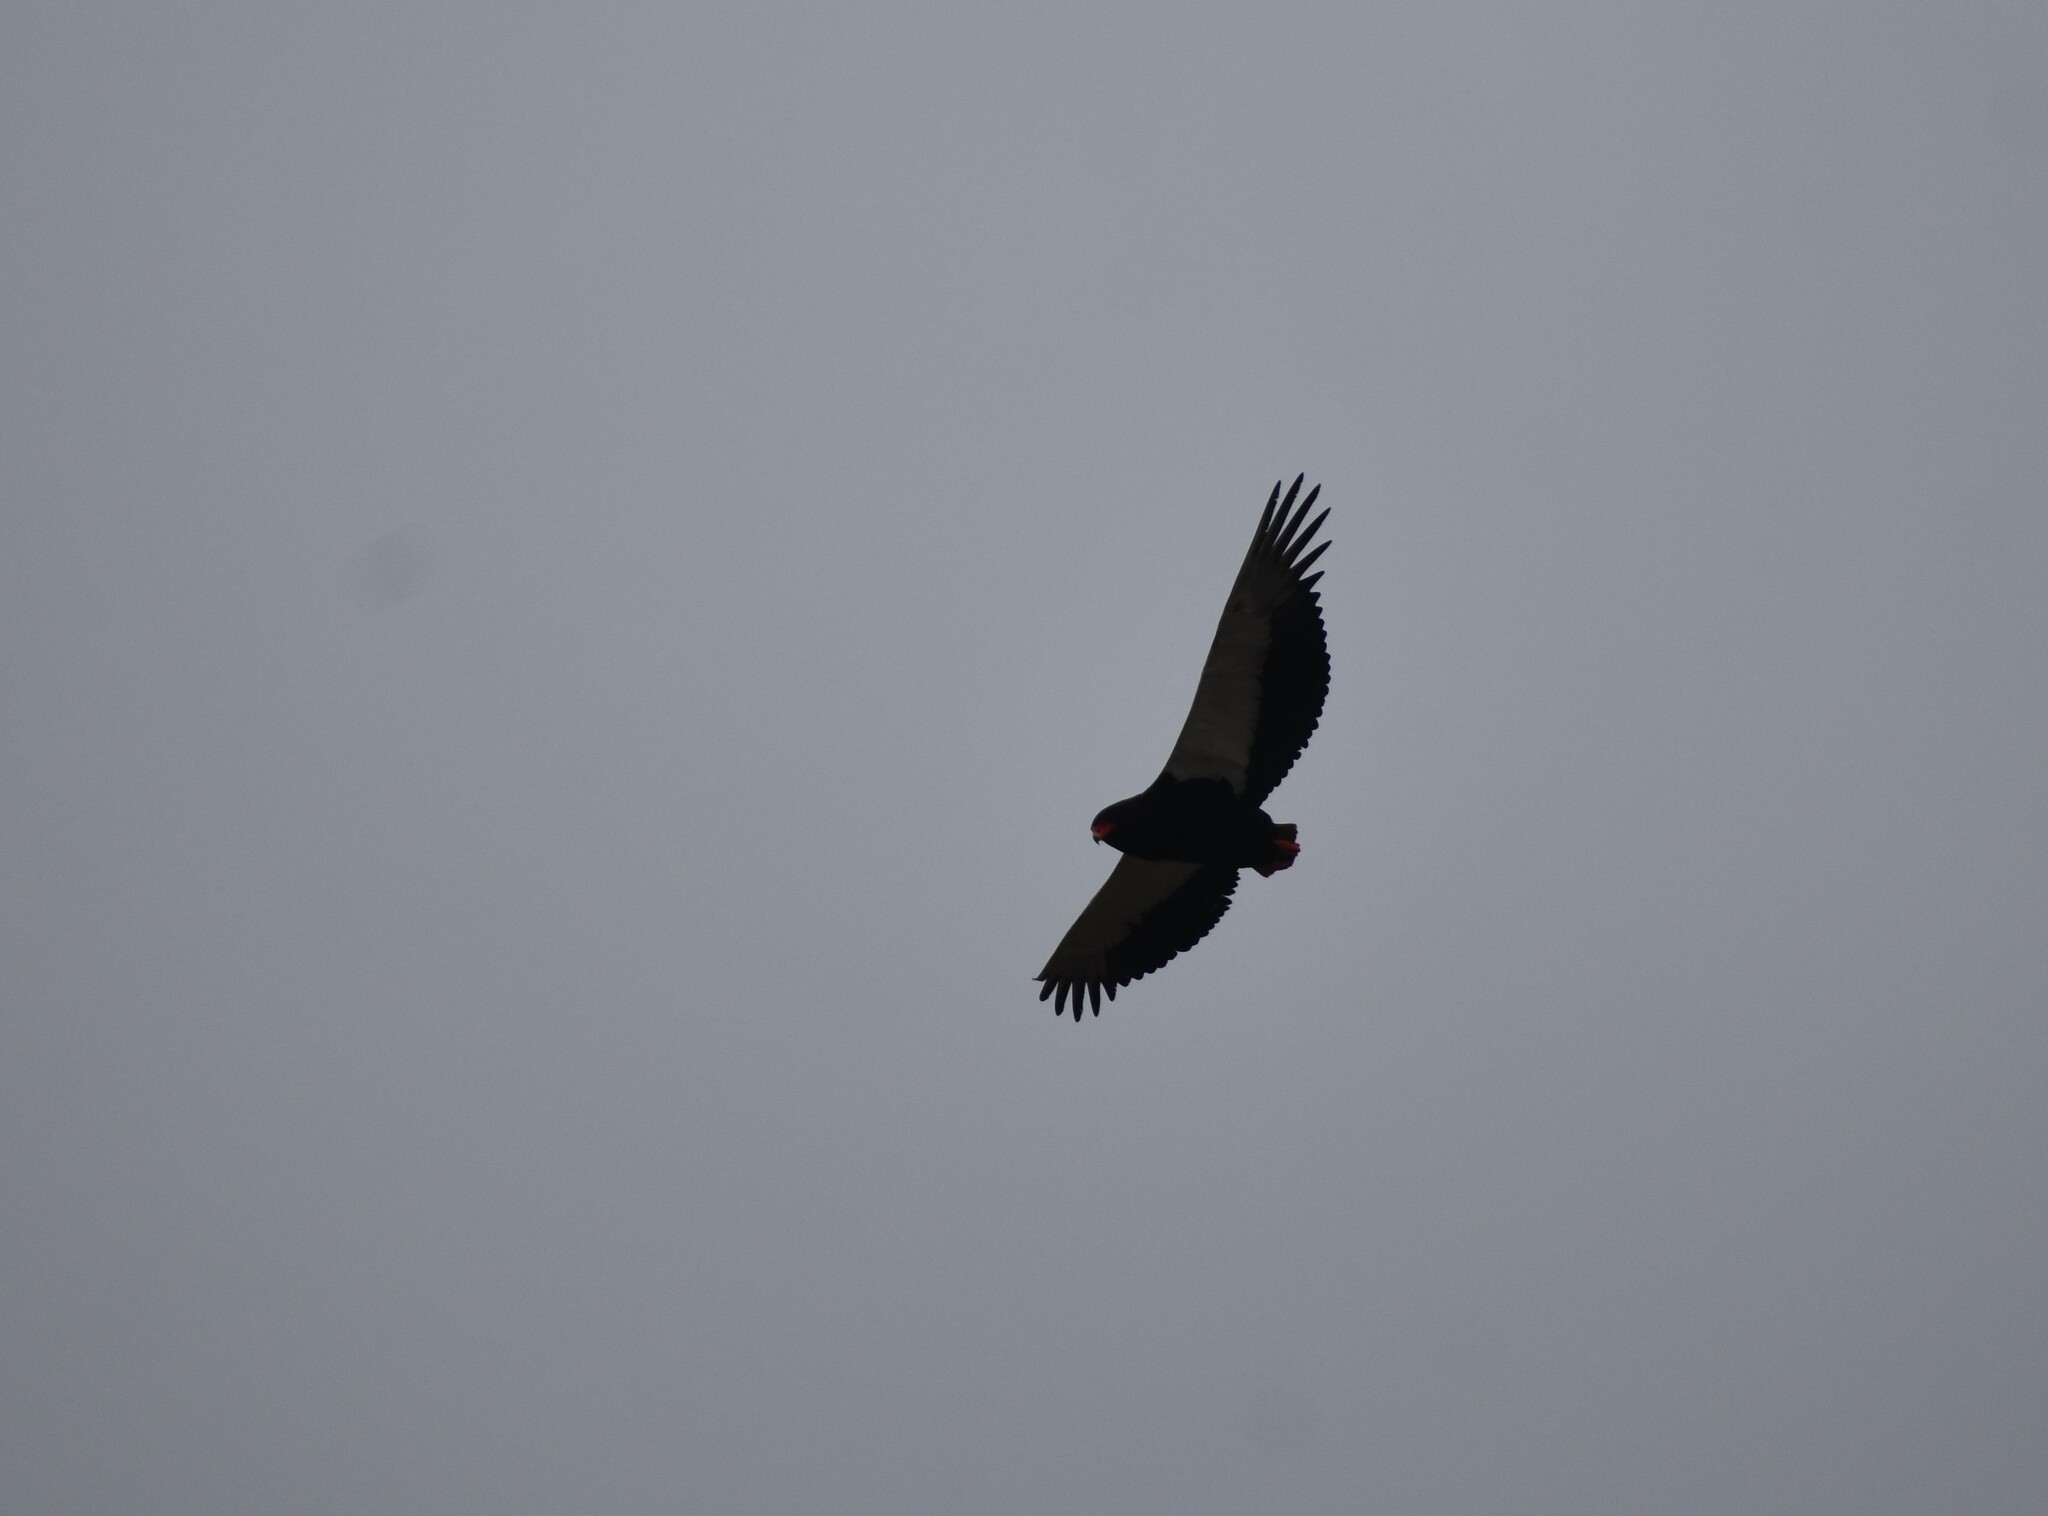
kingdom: Animalia
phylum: Chordata
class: Aves
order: Accipitriformes
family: Accipitridae
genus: Terathopius
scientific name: Terathopius ecaudatus
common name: Bateleur
